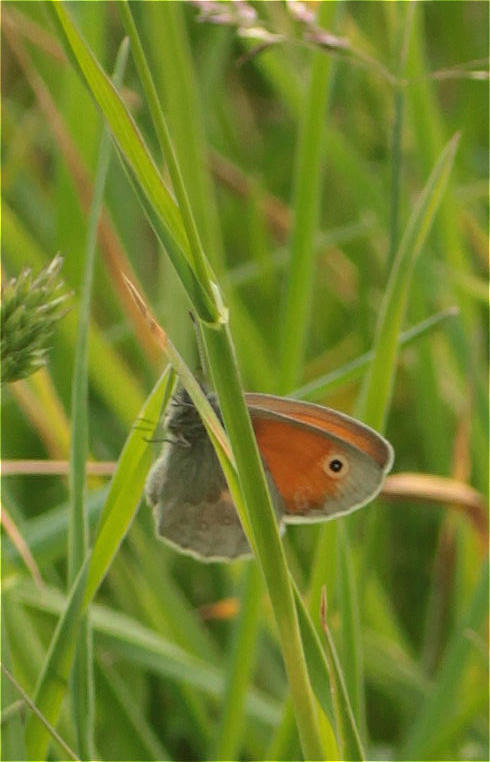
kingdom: Animalia
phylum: Arthropoda
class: Insecta
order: Lepidoptera
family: Nymphalidae
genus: Coenonympha
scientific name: Coenonympha pamphilus
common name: Small heath
